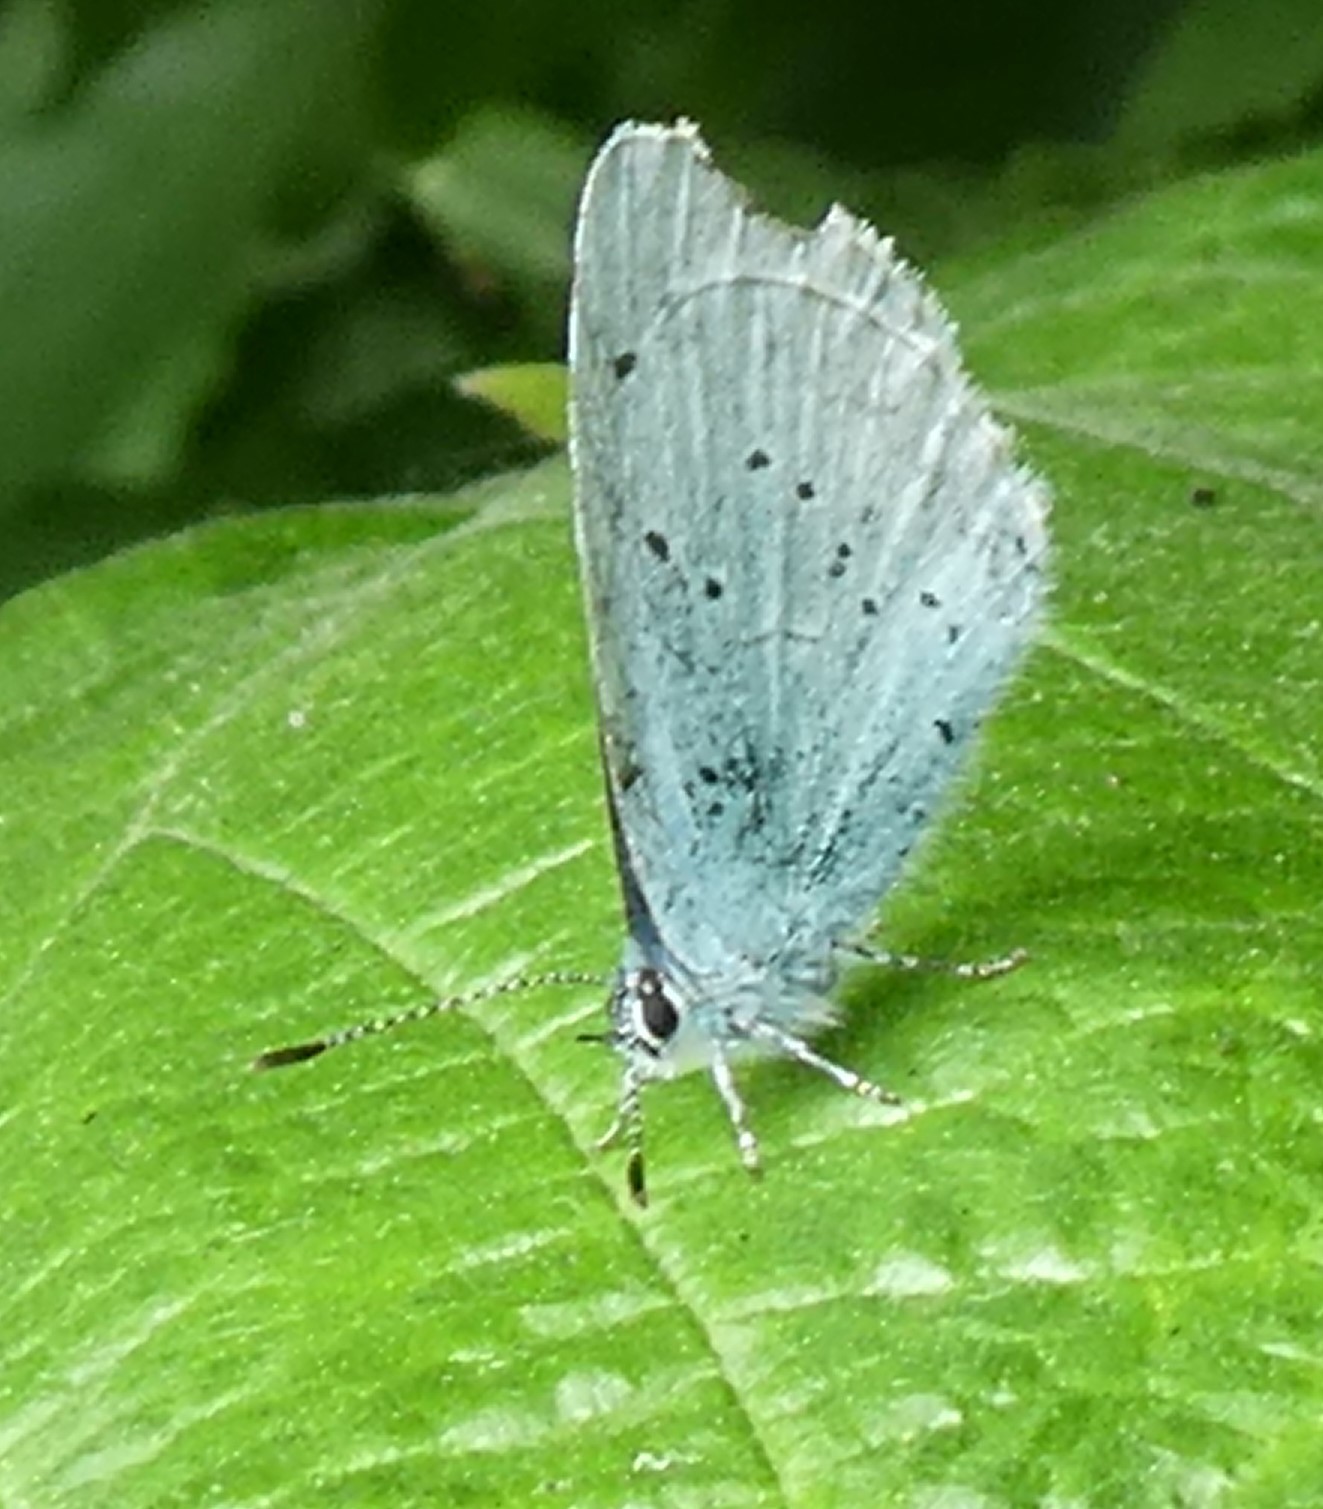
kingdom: Animalia
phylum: Arthropoda
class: Insecta
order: Lepidoptera
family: Lycaenidae
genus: Celastrina
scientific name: Celastrina argiolus
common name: Holly blue
